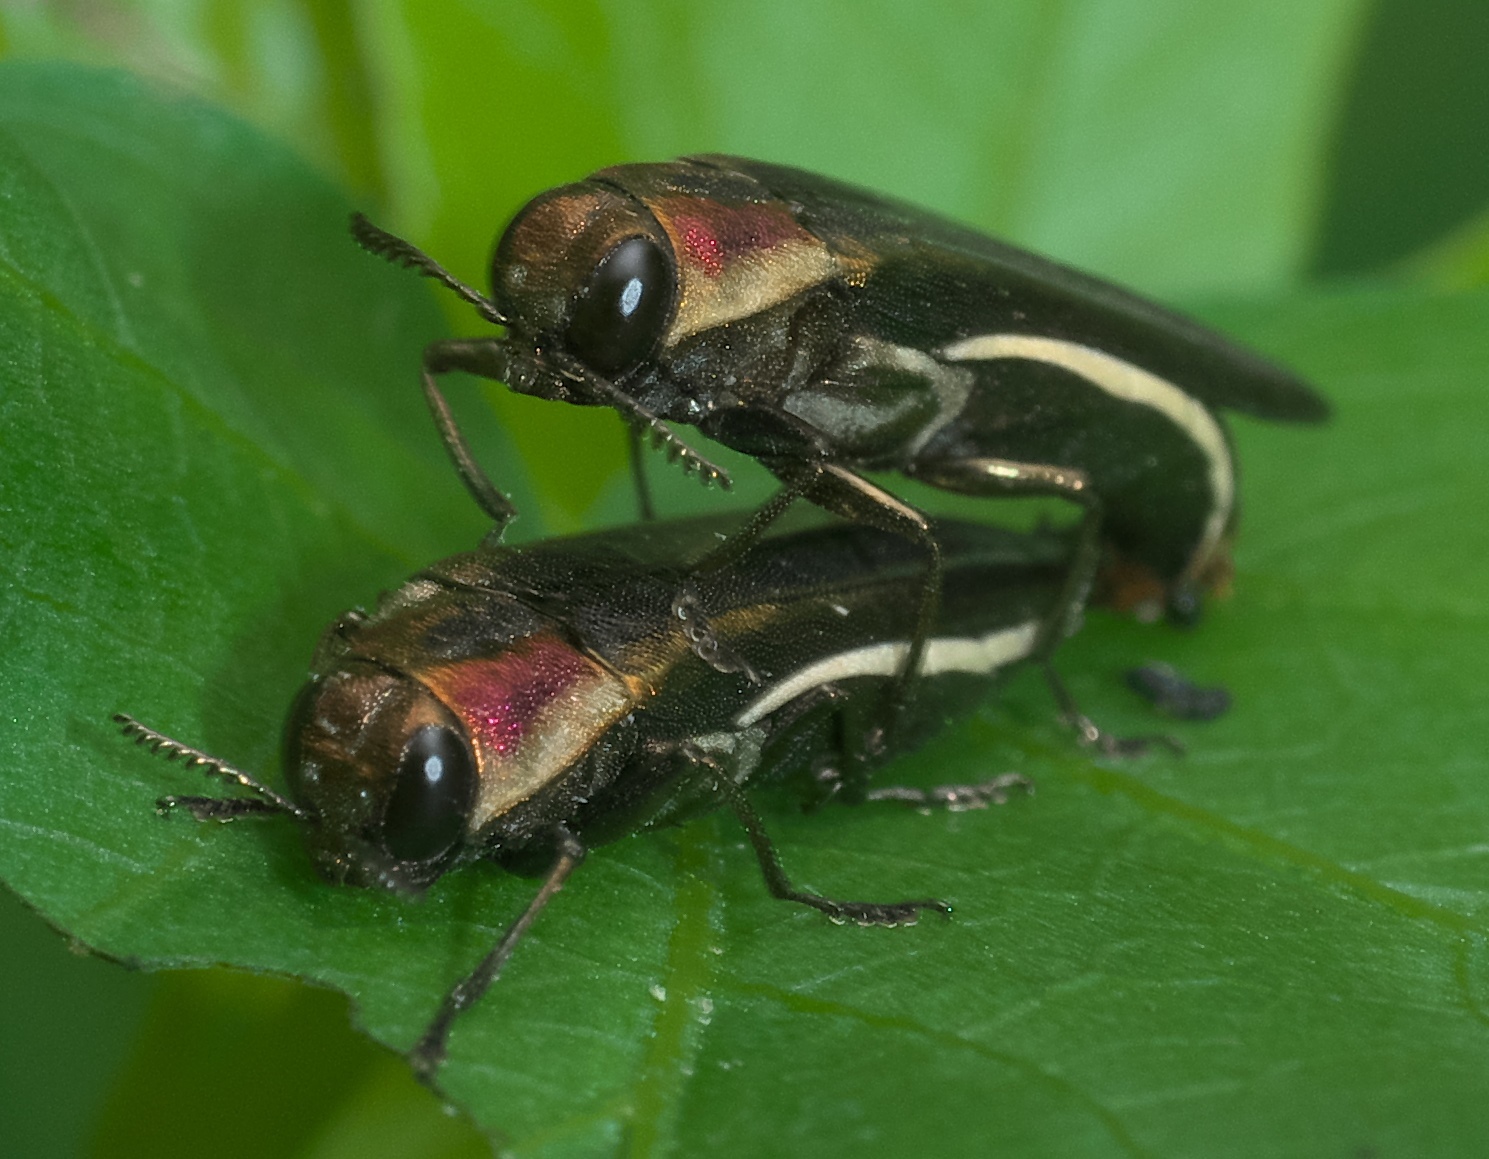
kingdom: Animalia
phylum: Arthropoda
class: Insecta
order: Coleoptera
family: Buprestidae
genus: Agrilus
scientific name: Agrilus concinnus
